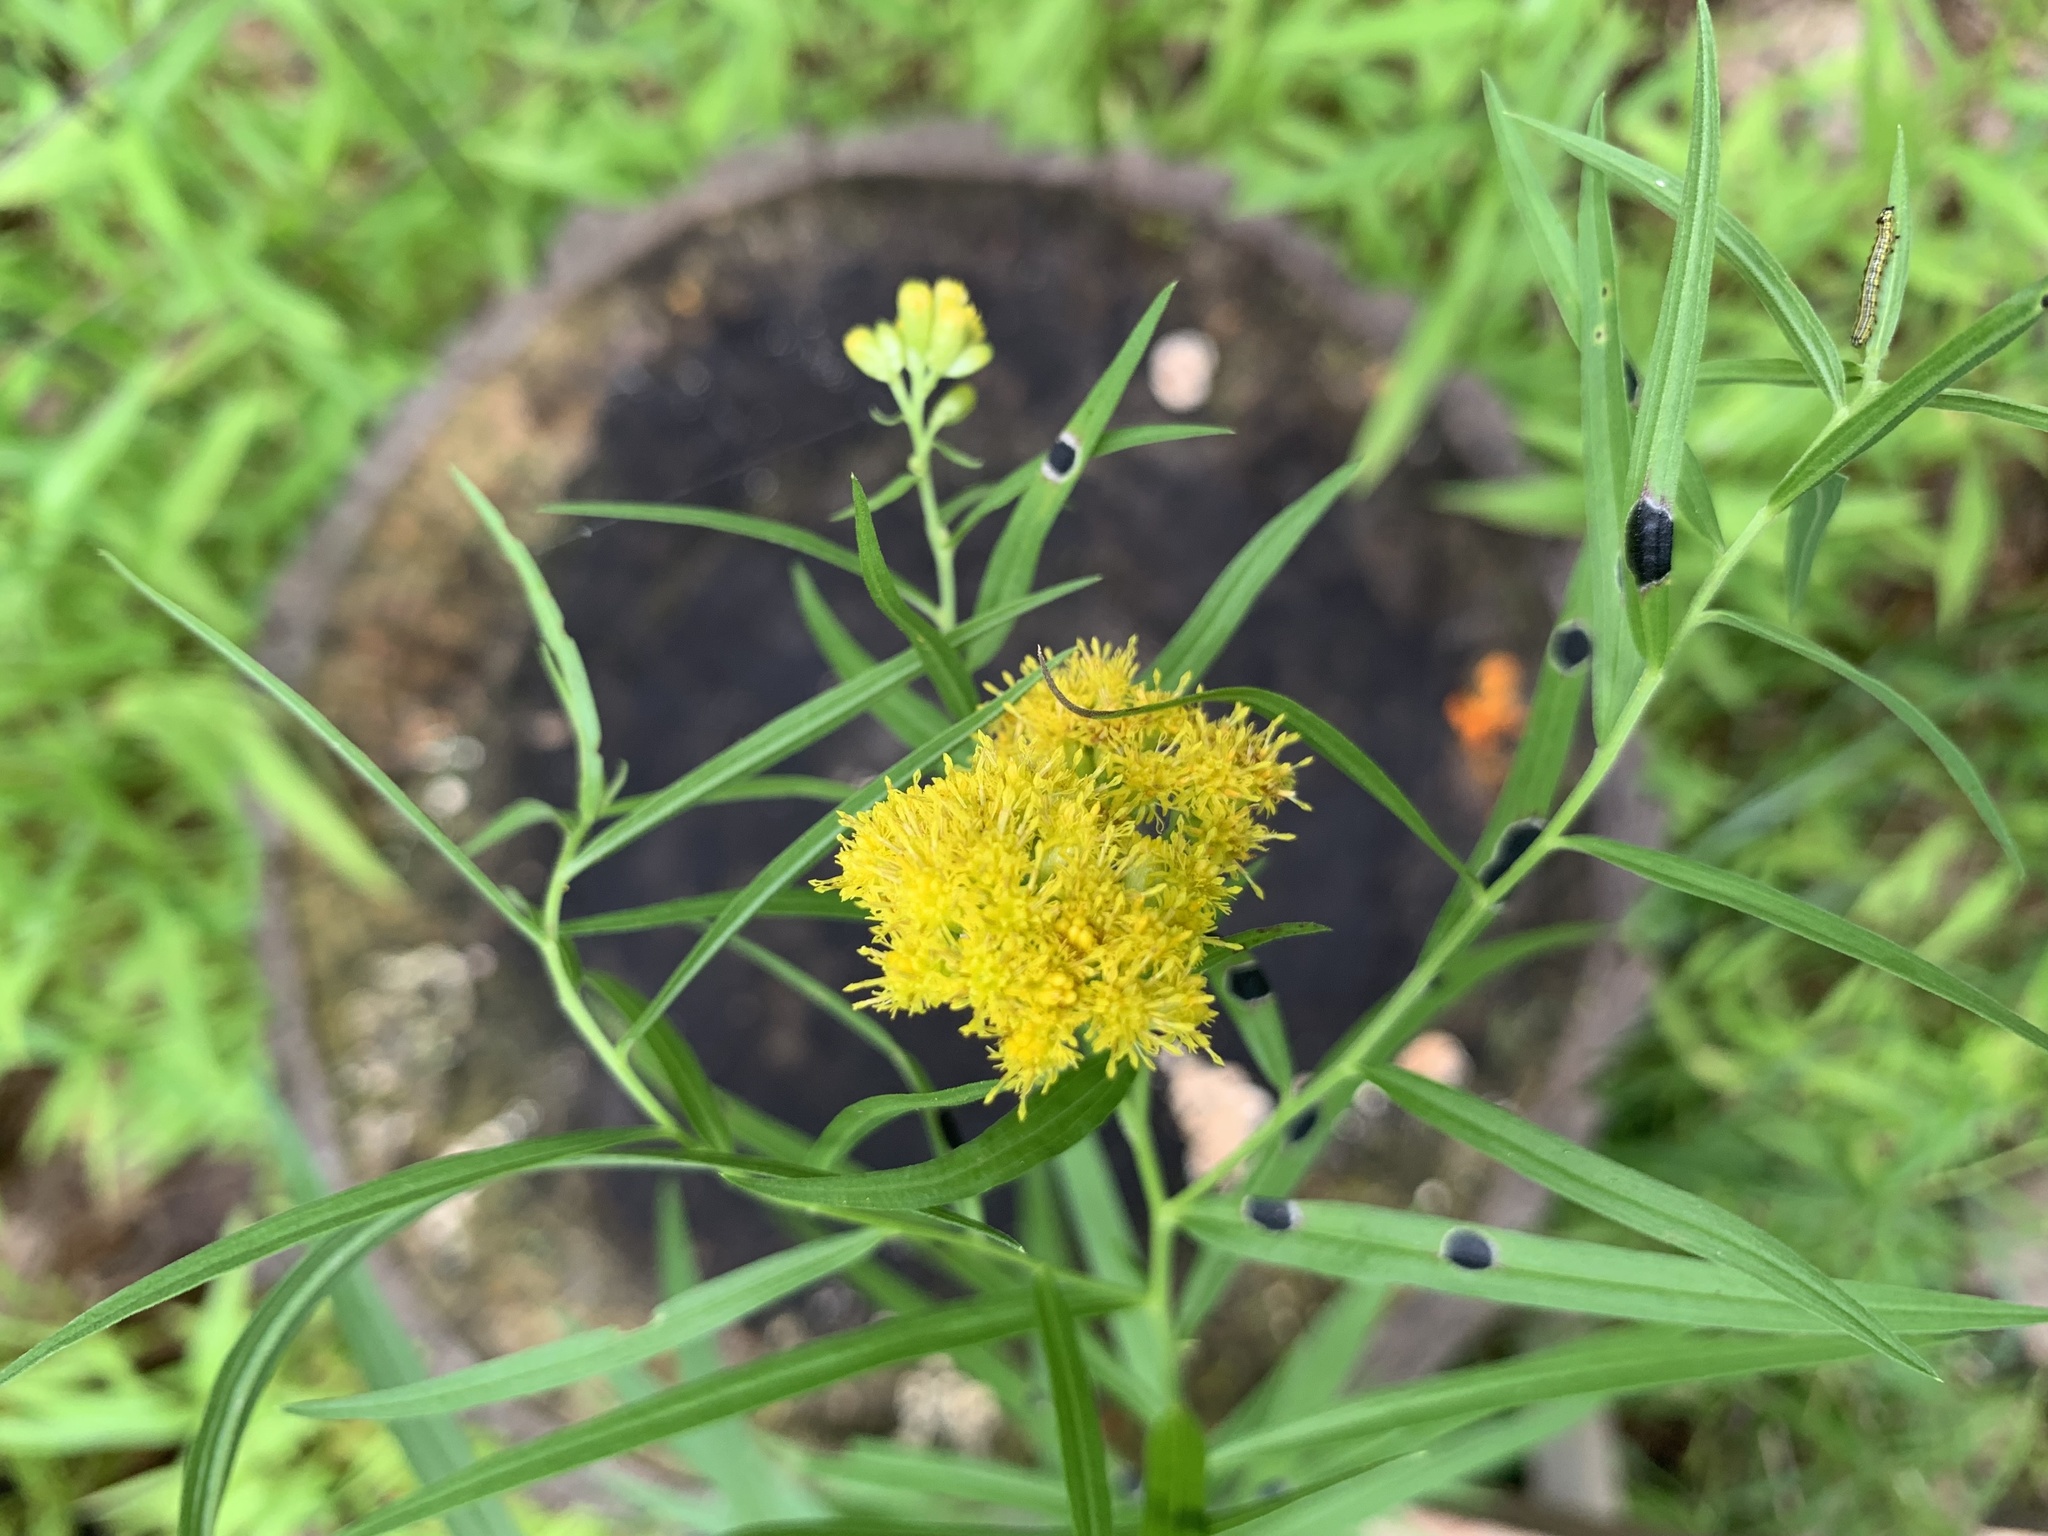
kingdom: Plantae
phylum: Tracheophyta
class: Magnoliopsida
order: Asterales
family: Asteraceae
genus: Euthamia
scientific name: Euthamia graminifolia
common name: Common goldentop
